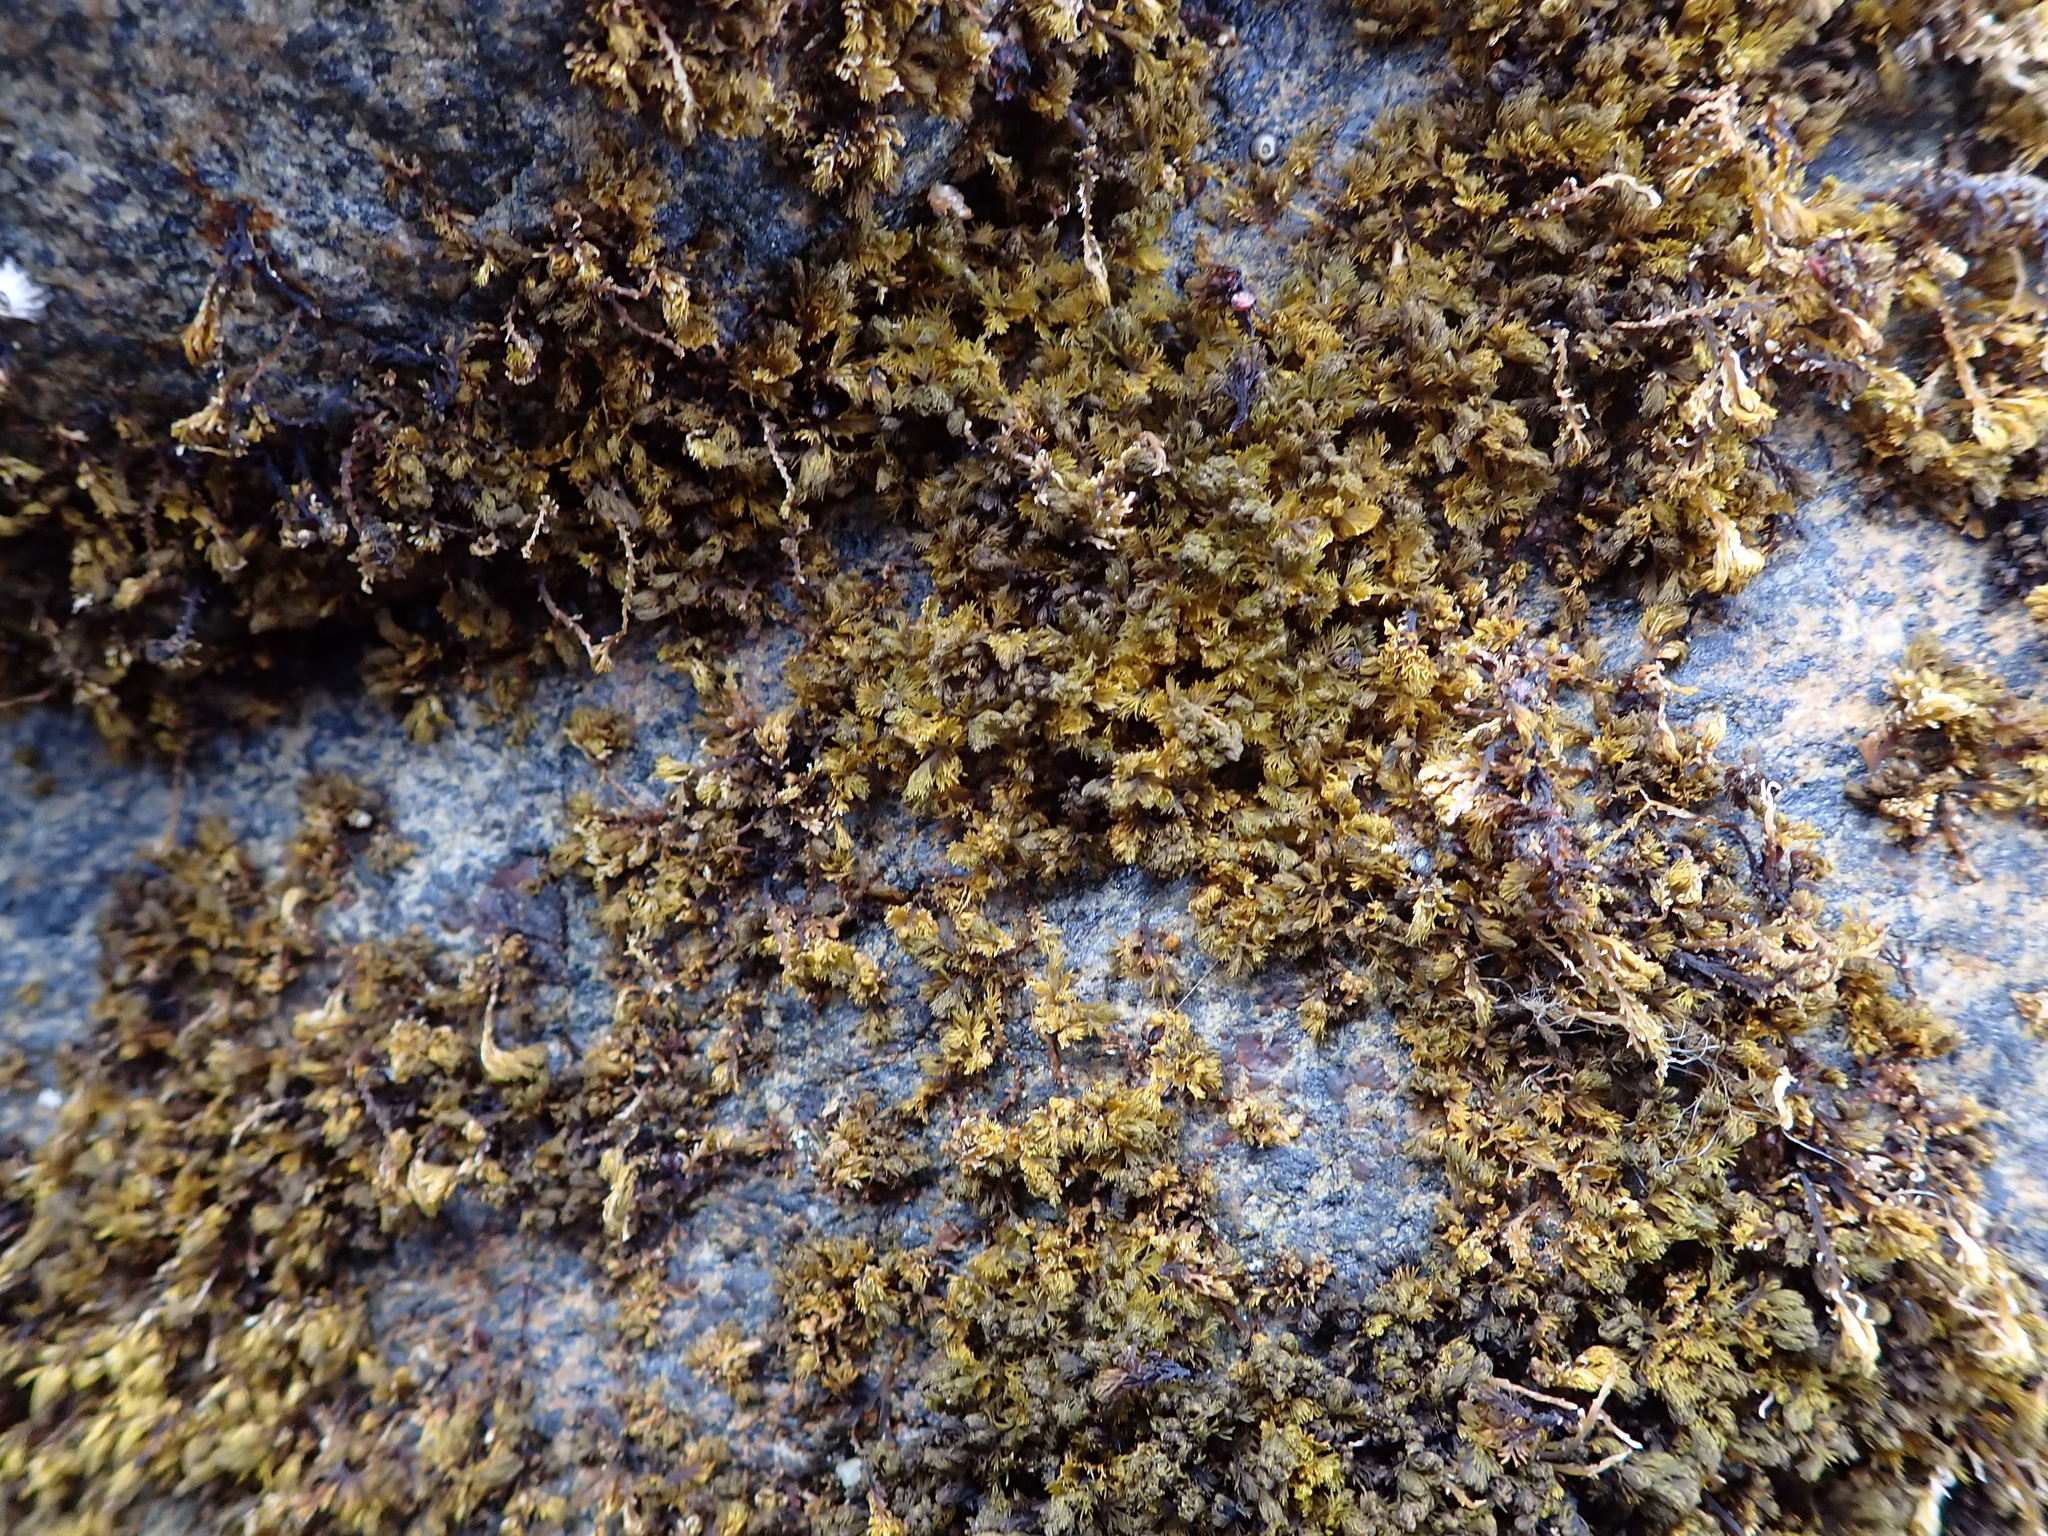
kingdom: Animalia
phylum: Mollusca
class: Bivalvia
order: Galeommatida
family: Lasaeidae
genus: Lasaea
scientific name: Lasaea hinemoa
